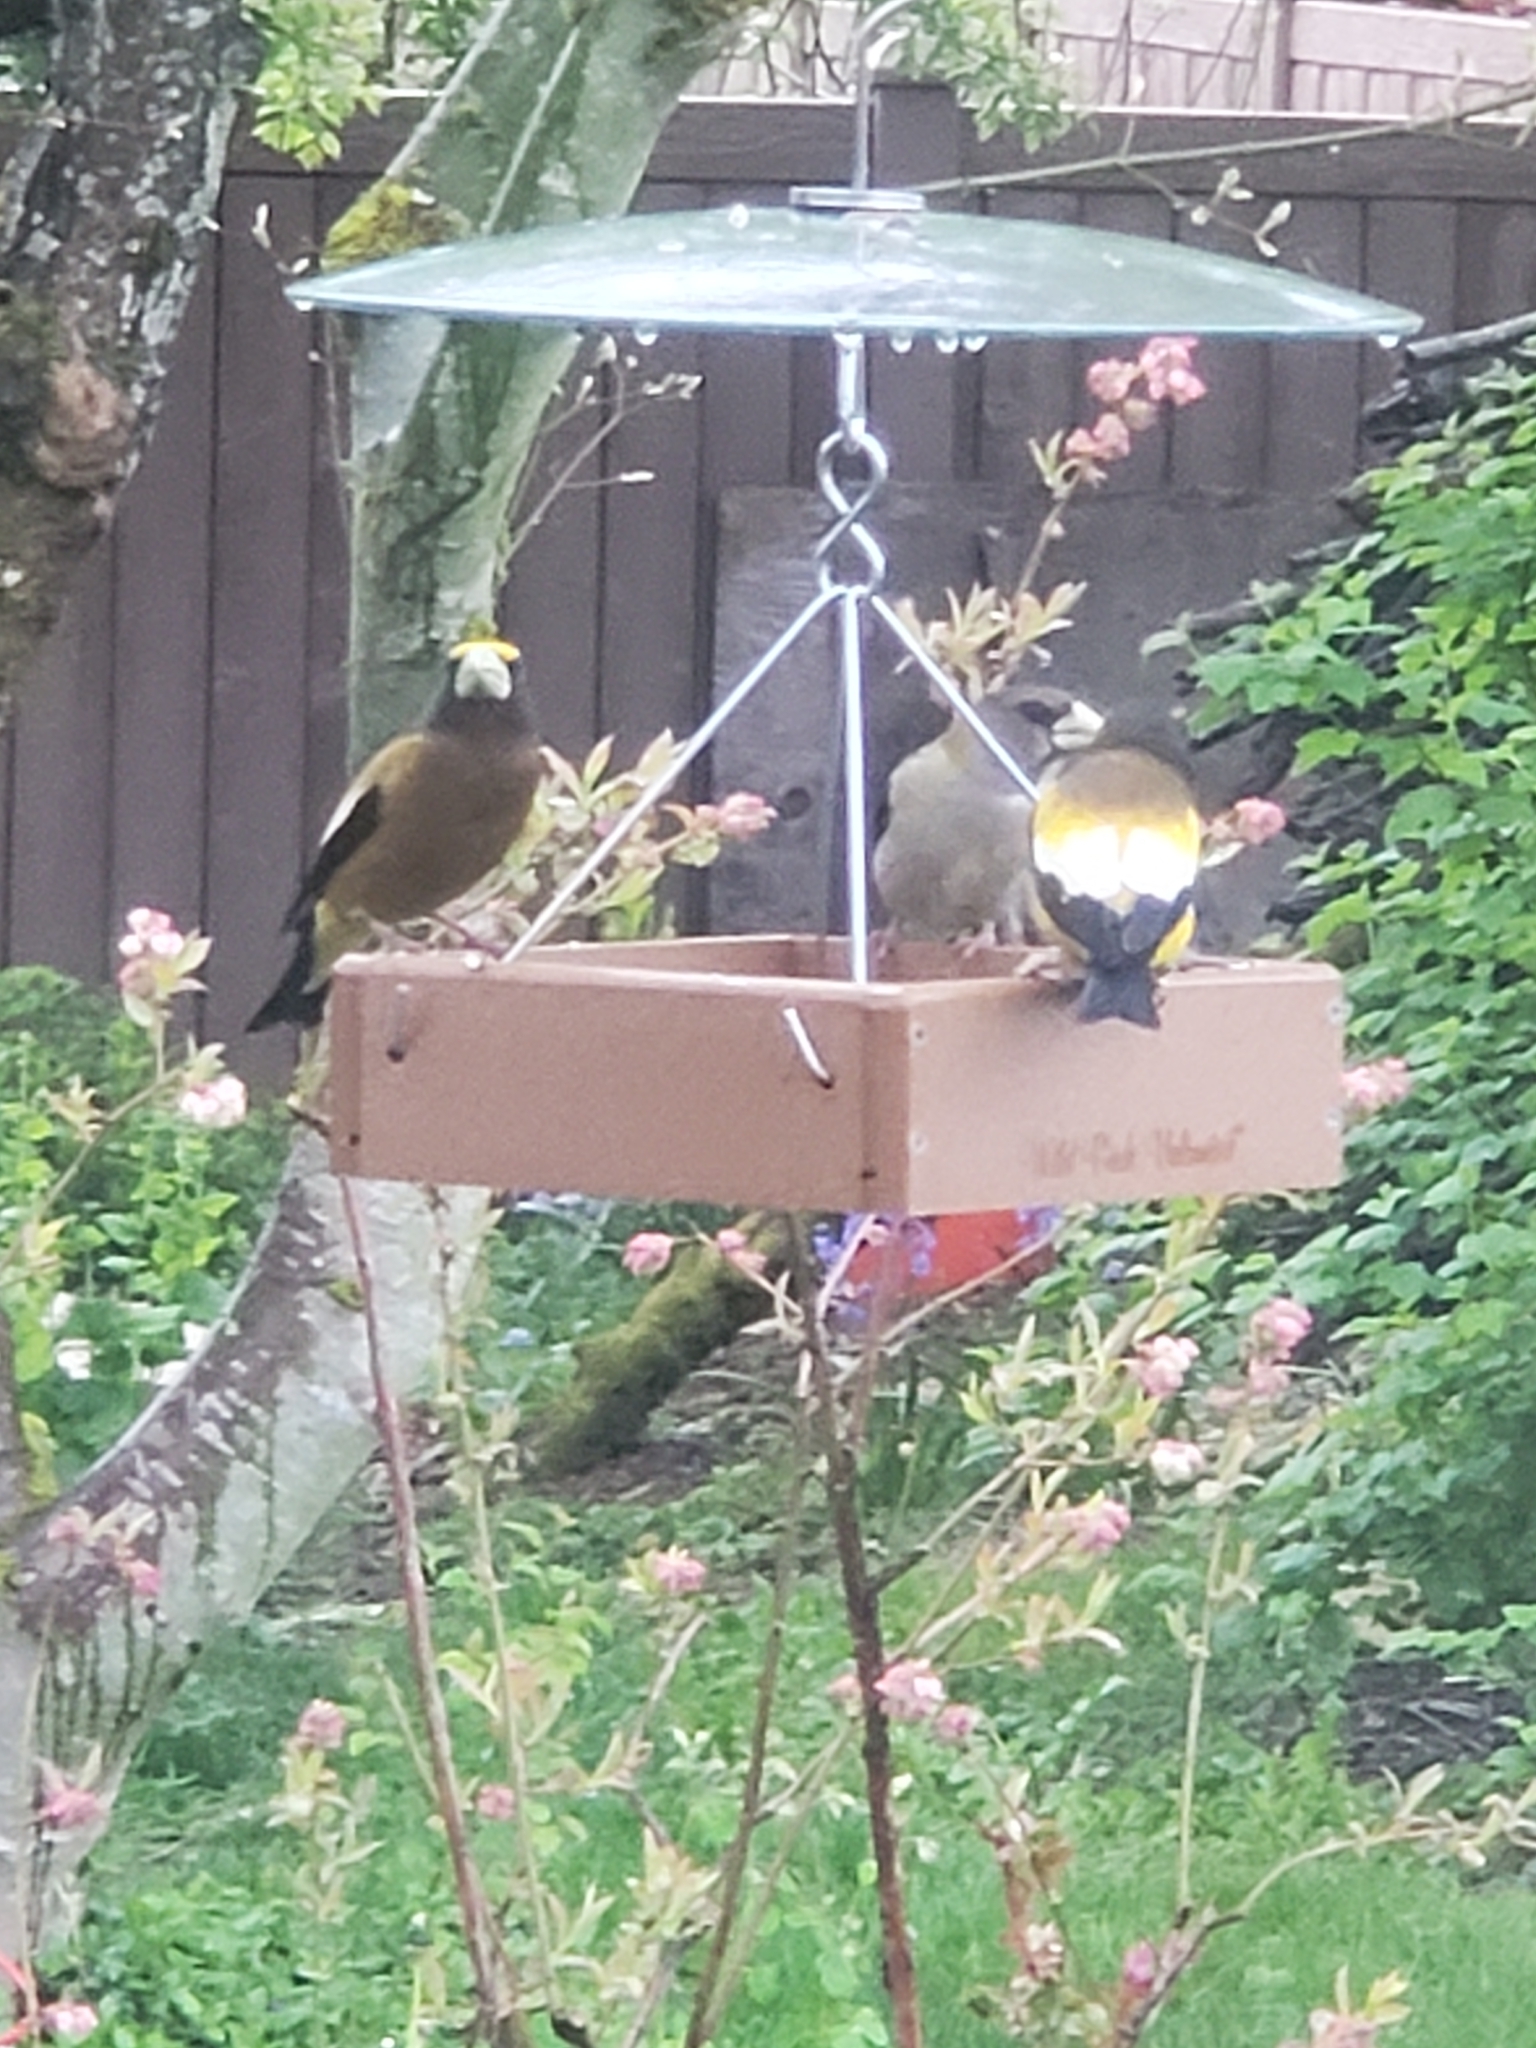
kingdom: Animalia
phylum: Chordata
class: Aves
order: Passeriformes
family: Fringillidae
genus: Hesperiphona
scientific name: Hesperiphona vespertina
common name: Evening grosbeak
